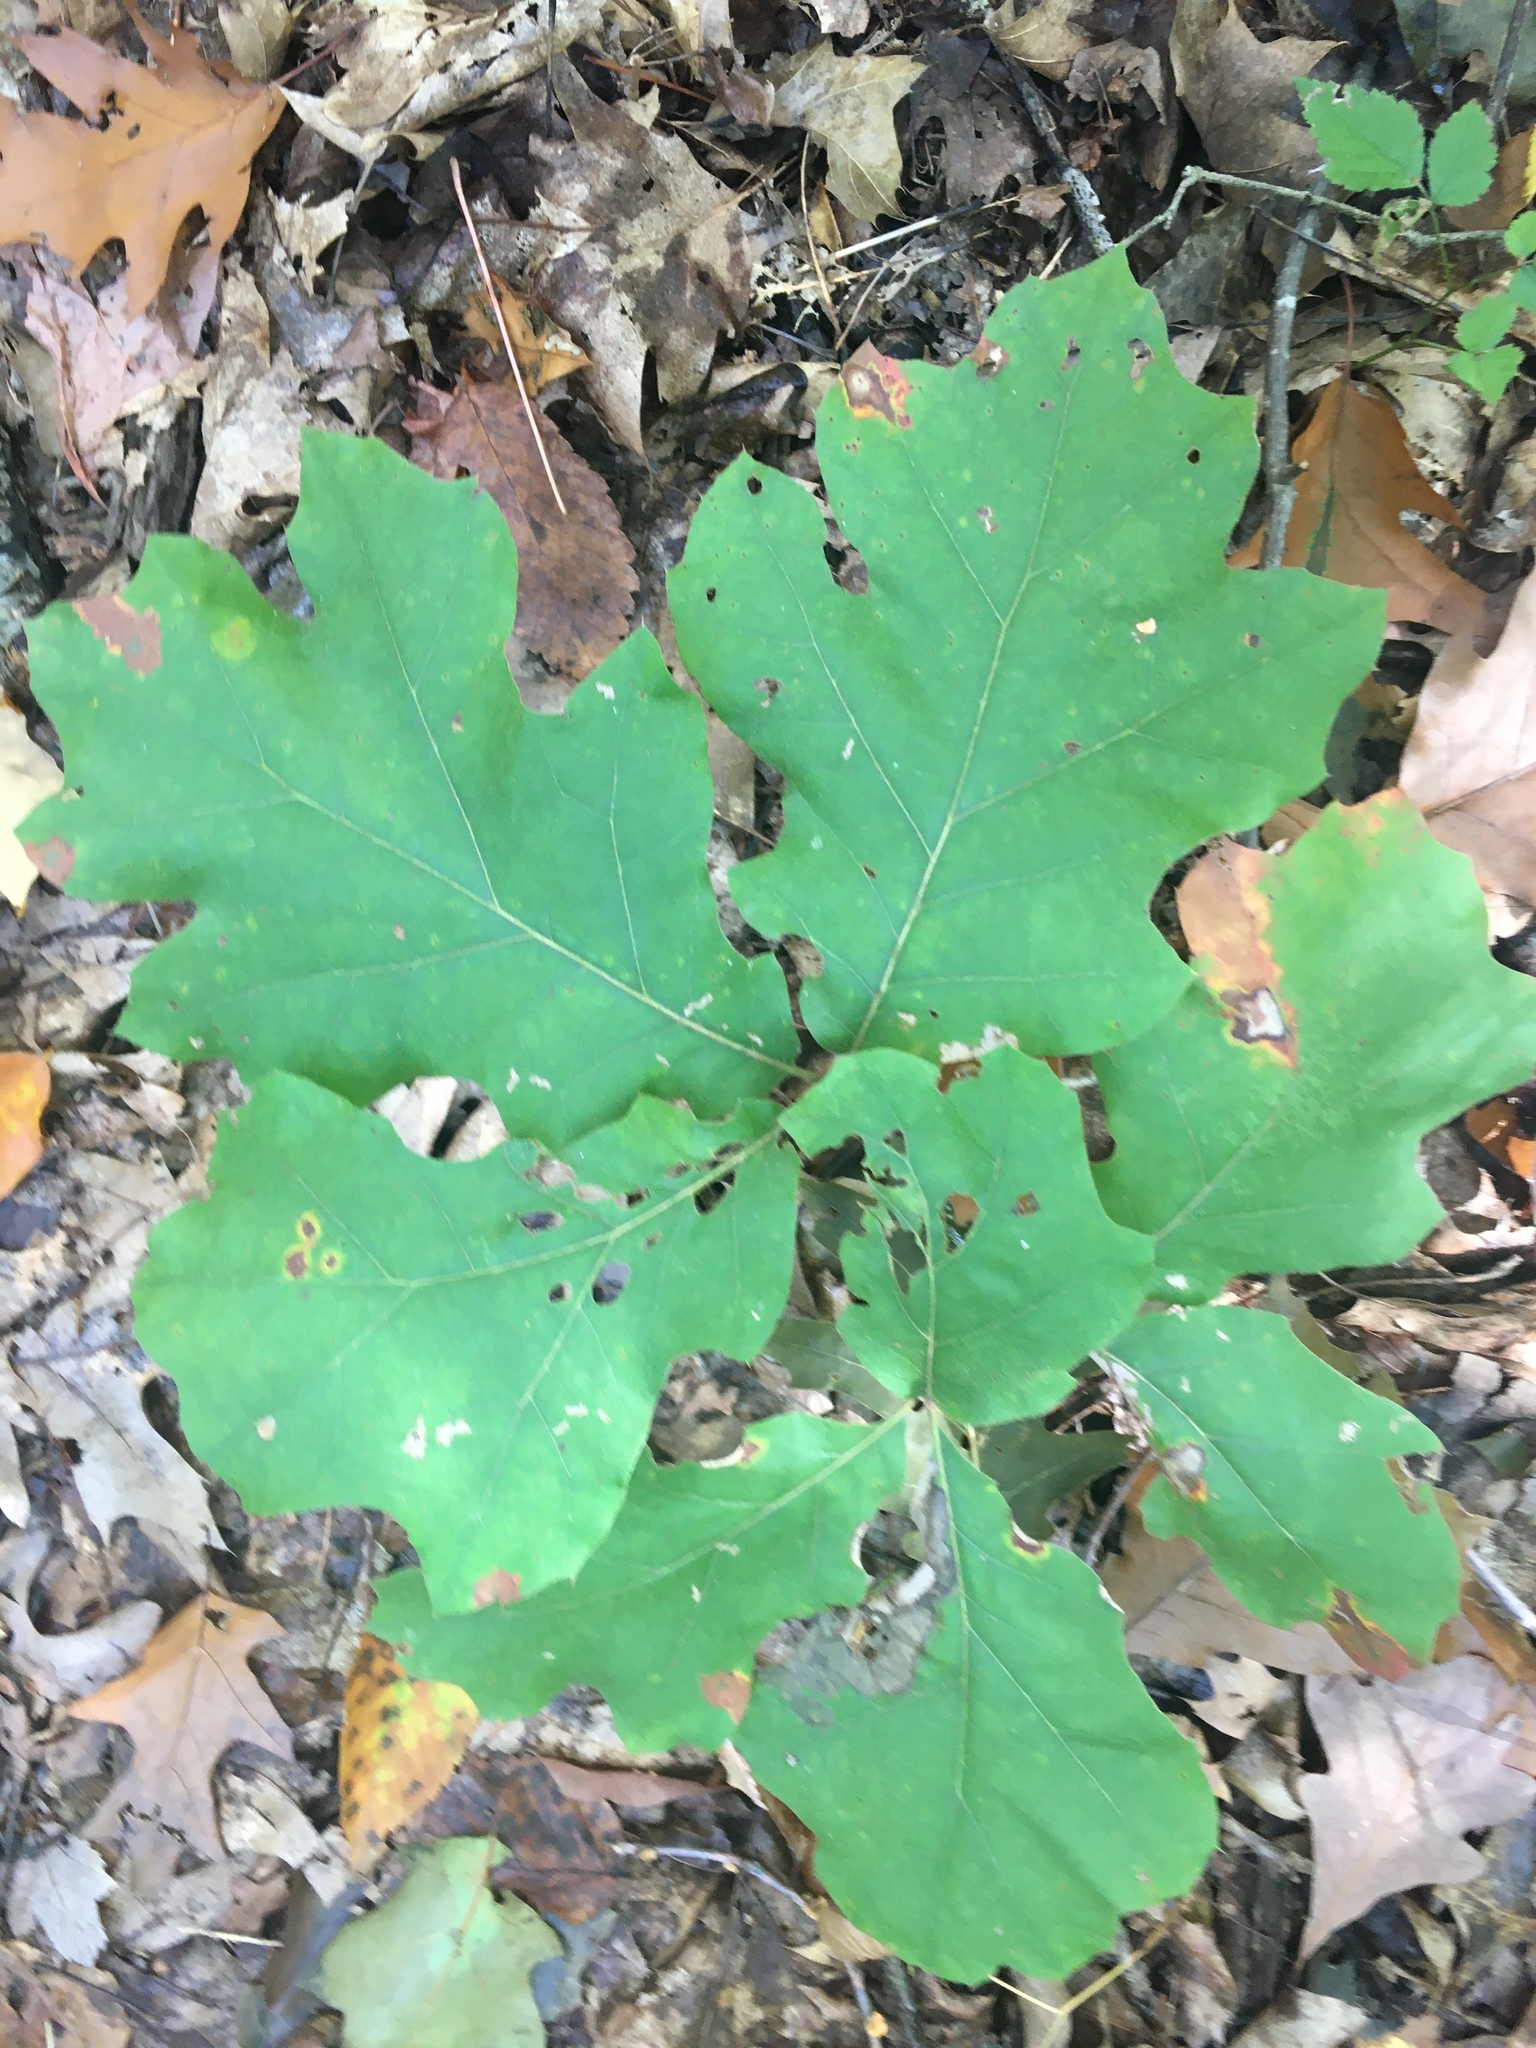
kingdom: Plantae
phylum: Tracheophyta
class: Magnoliopsida
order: Fagales
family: Fagaceae
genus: Quercus
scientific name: Quercus velutina
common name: Black oak
